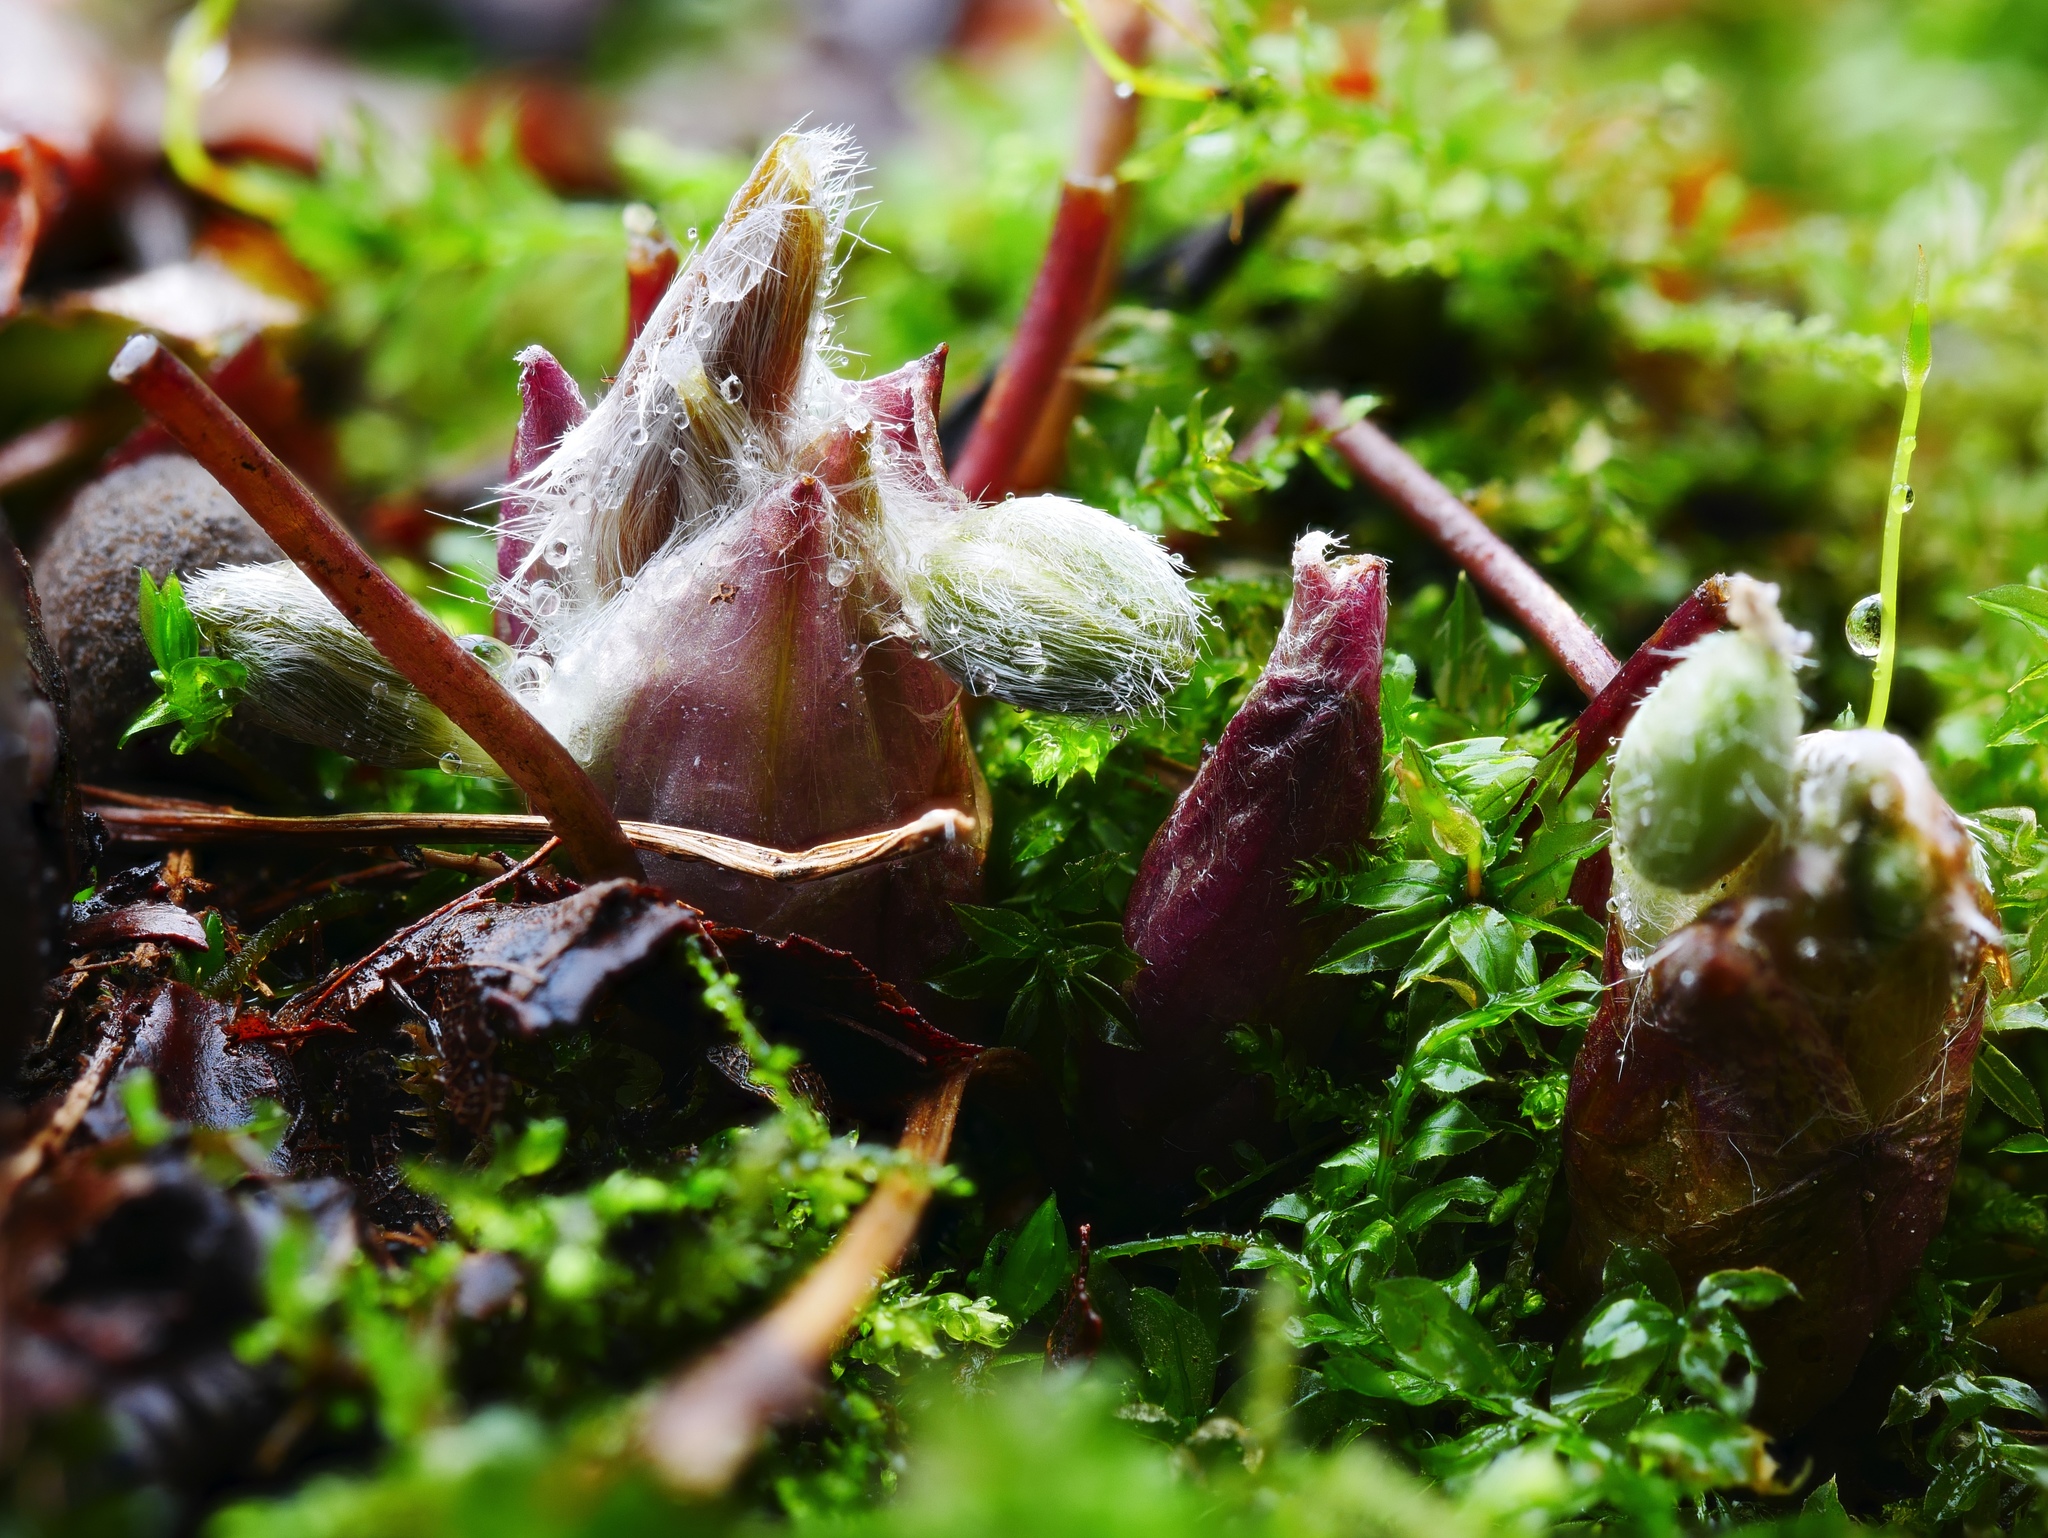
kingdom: Plantae
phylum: Tracheophyta
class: Magnoliopsida
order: Ranunculales
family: Ranunculaceae
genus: Hepatica
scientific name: Hepatica acutiloba
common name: Sharp-lobed hepatica
